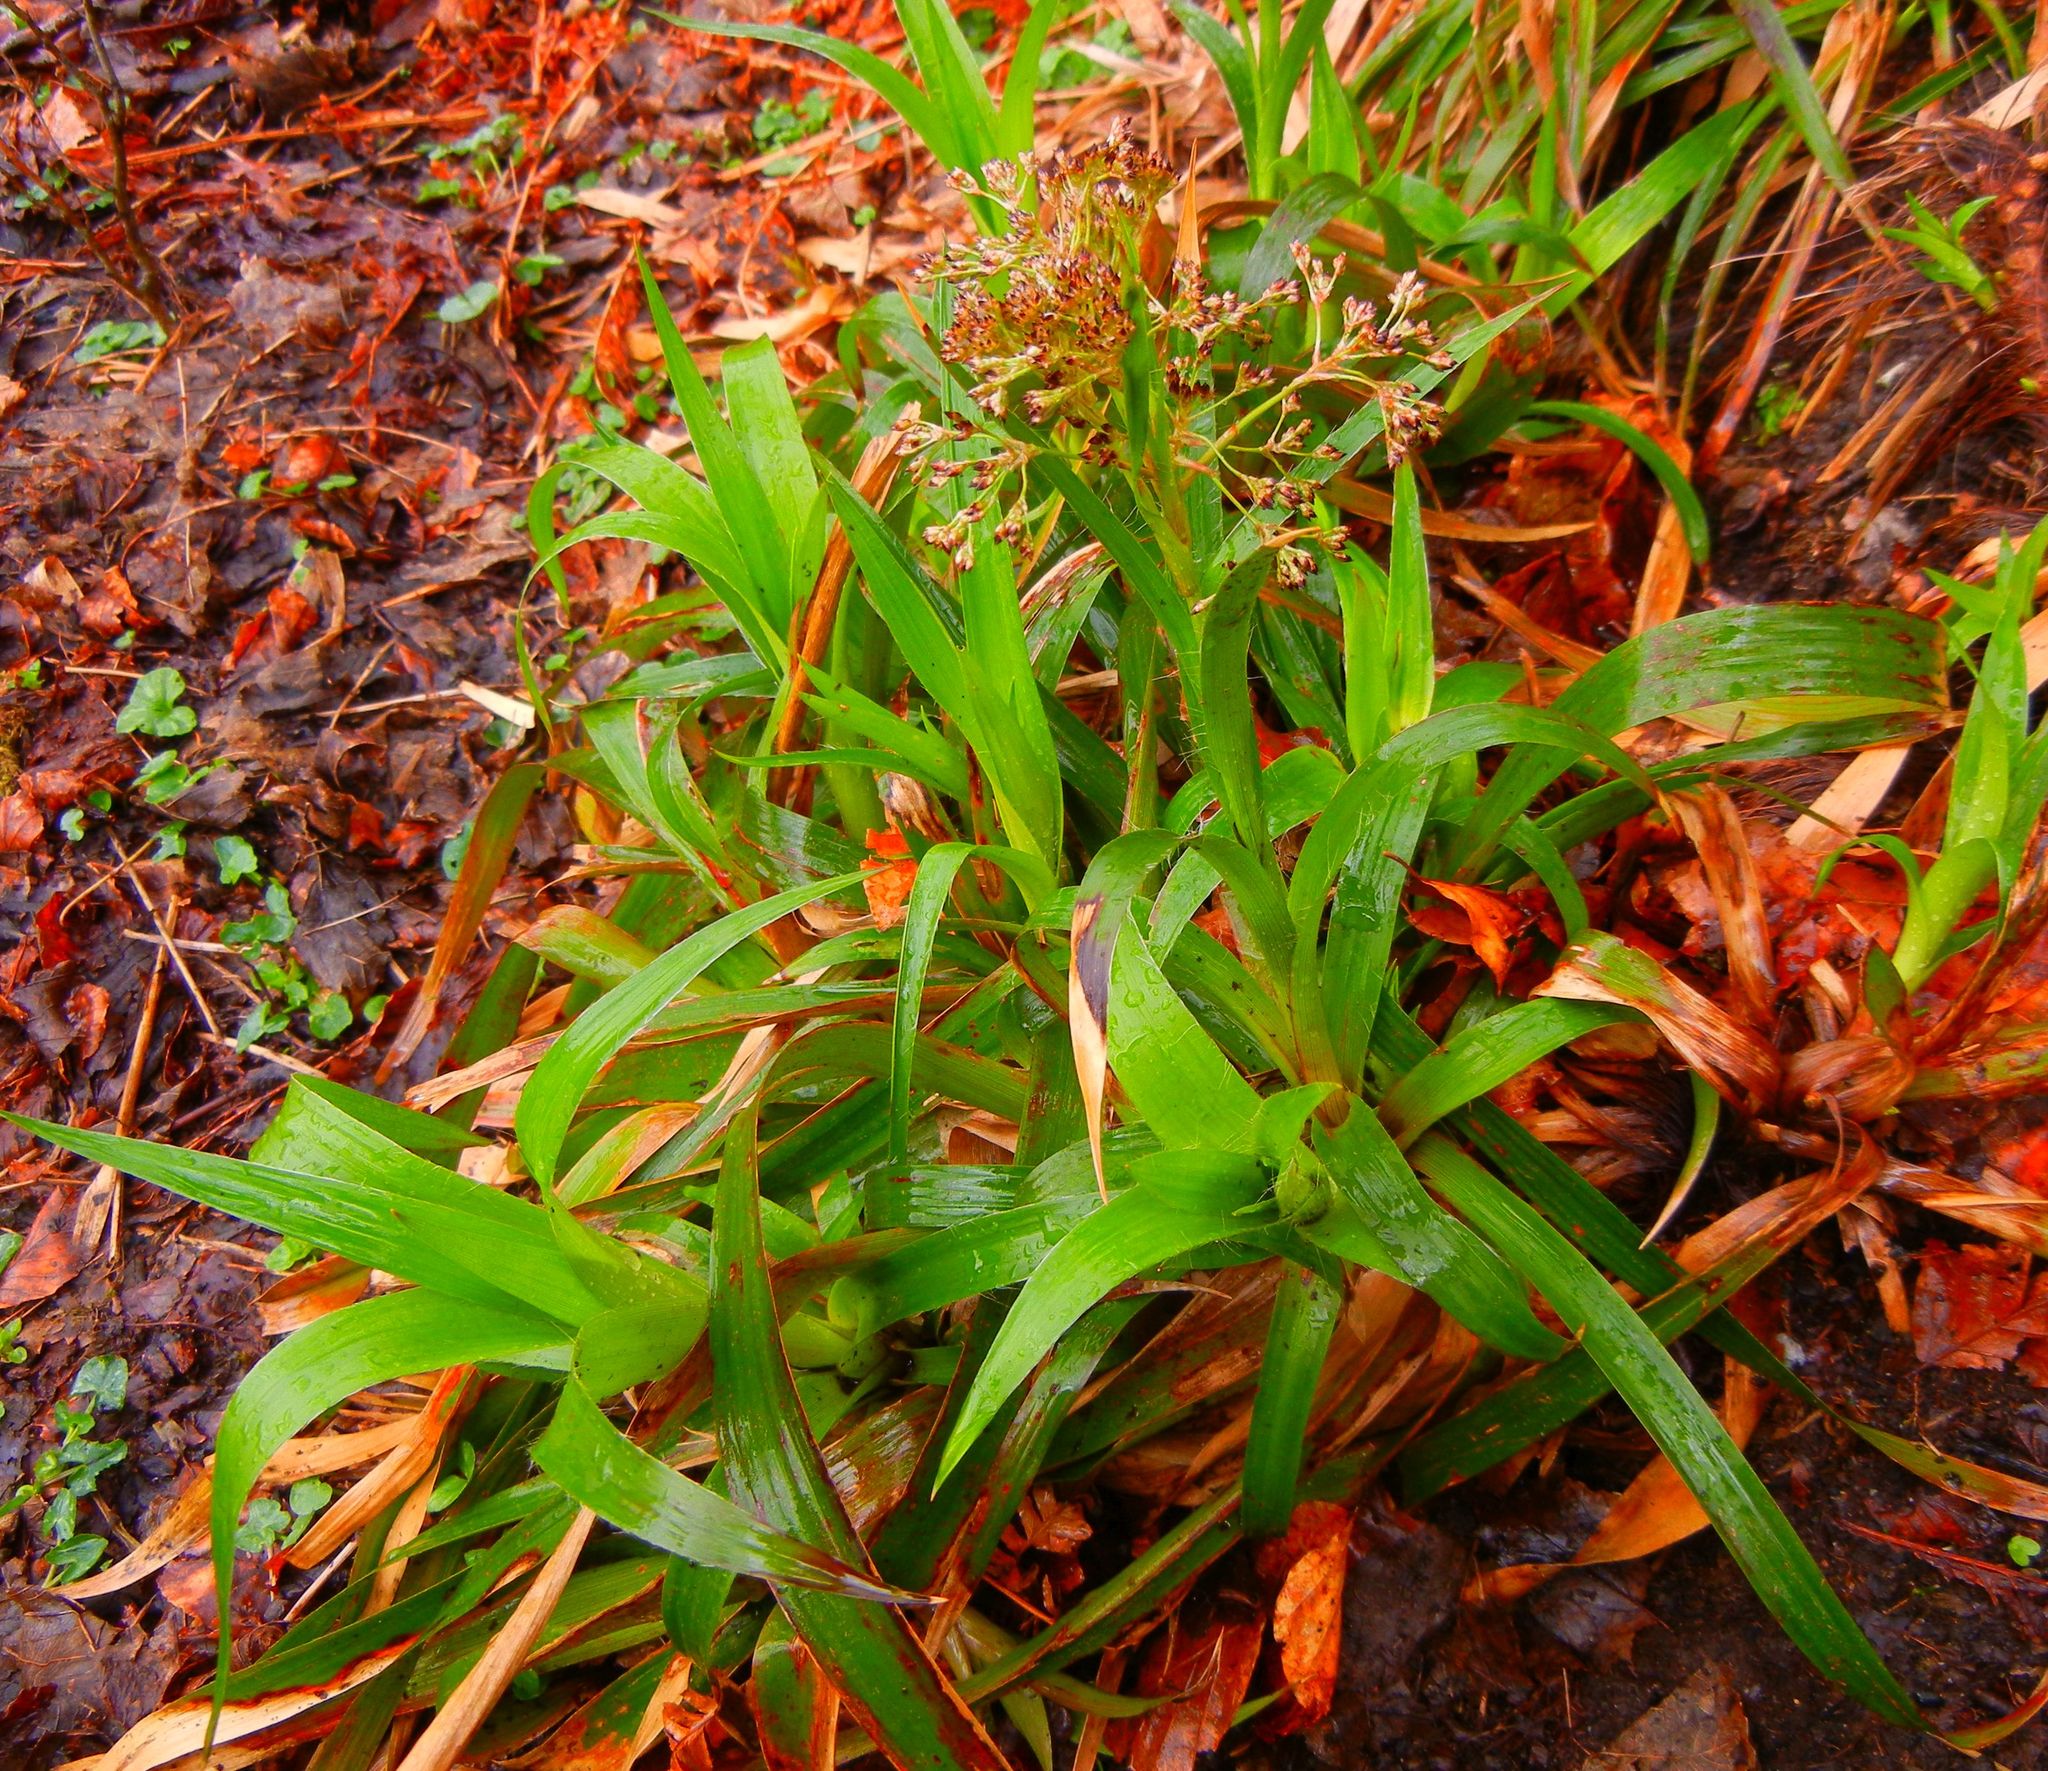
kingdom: Plantae
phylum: Tracheophyta
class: Liliopsida
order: Poales
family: Juncaceae
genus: Luzula
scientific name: Luzula sylvatica
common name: Great wood-rush
